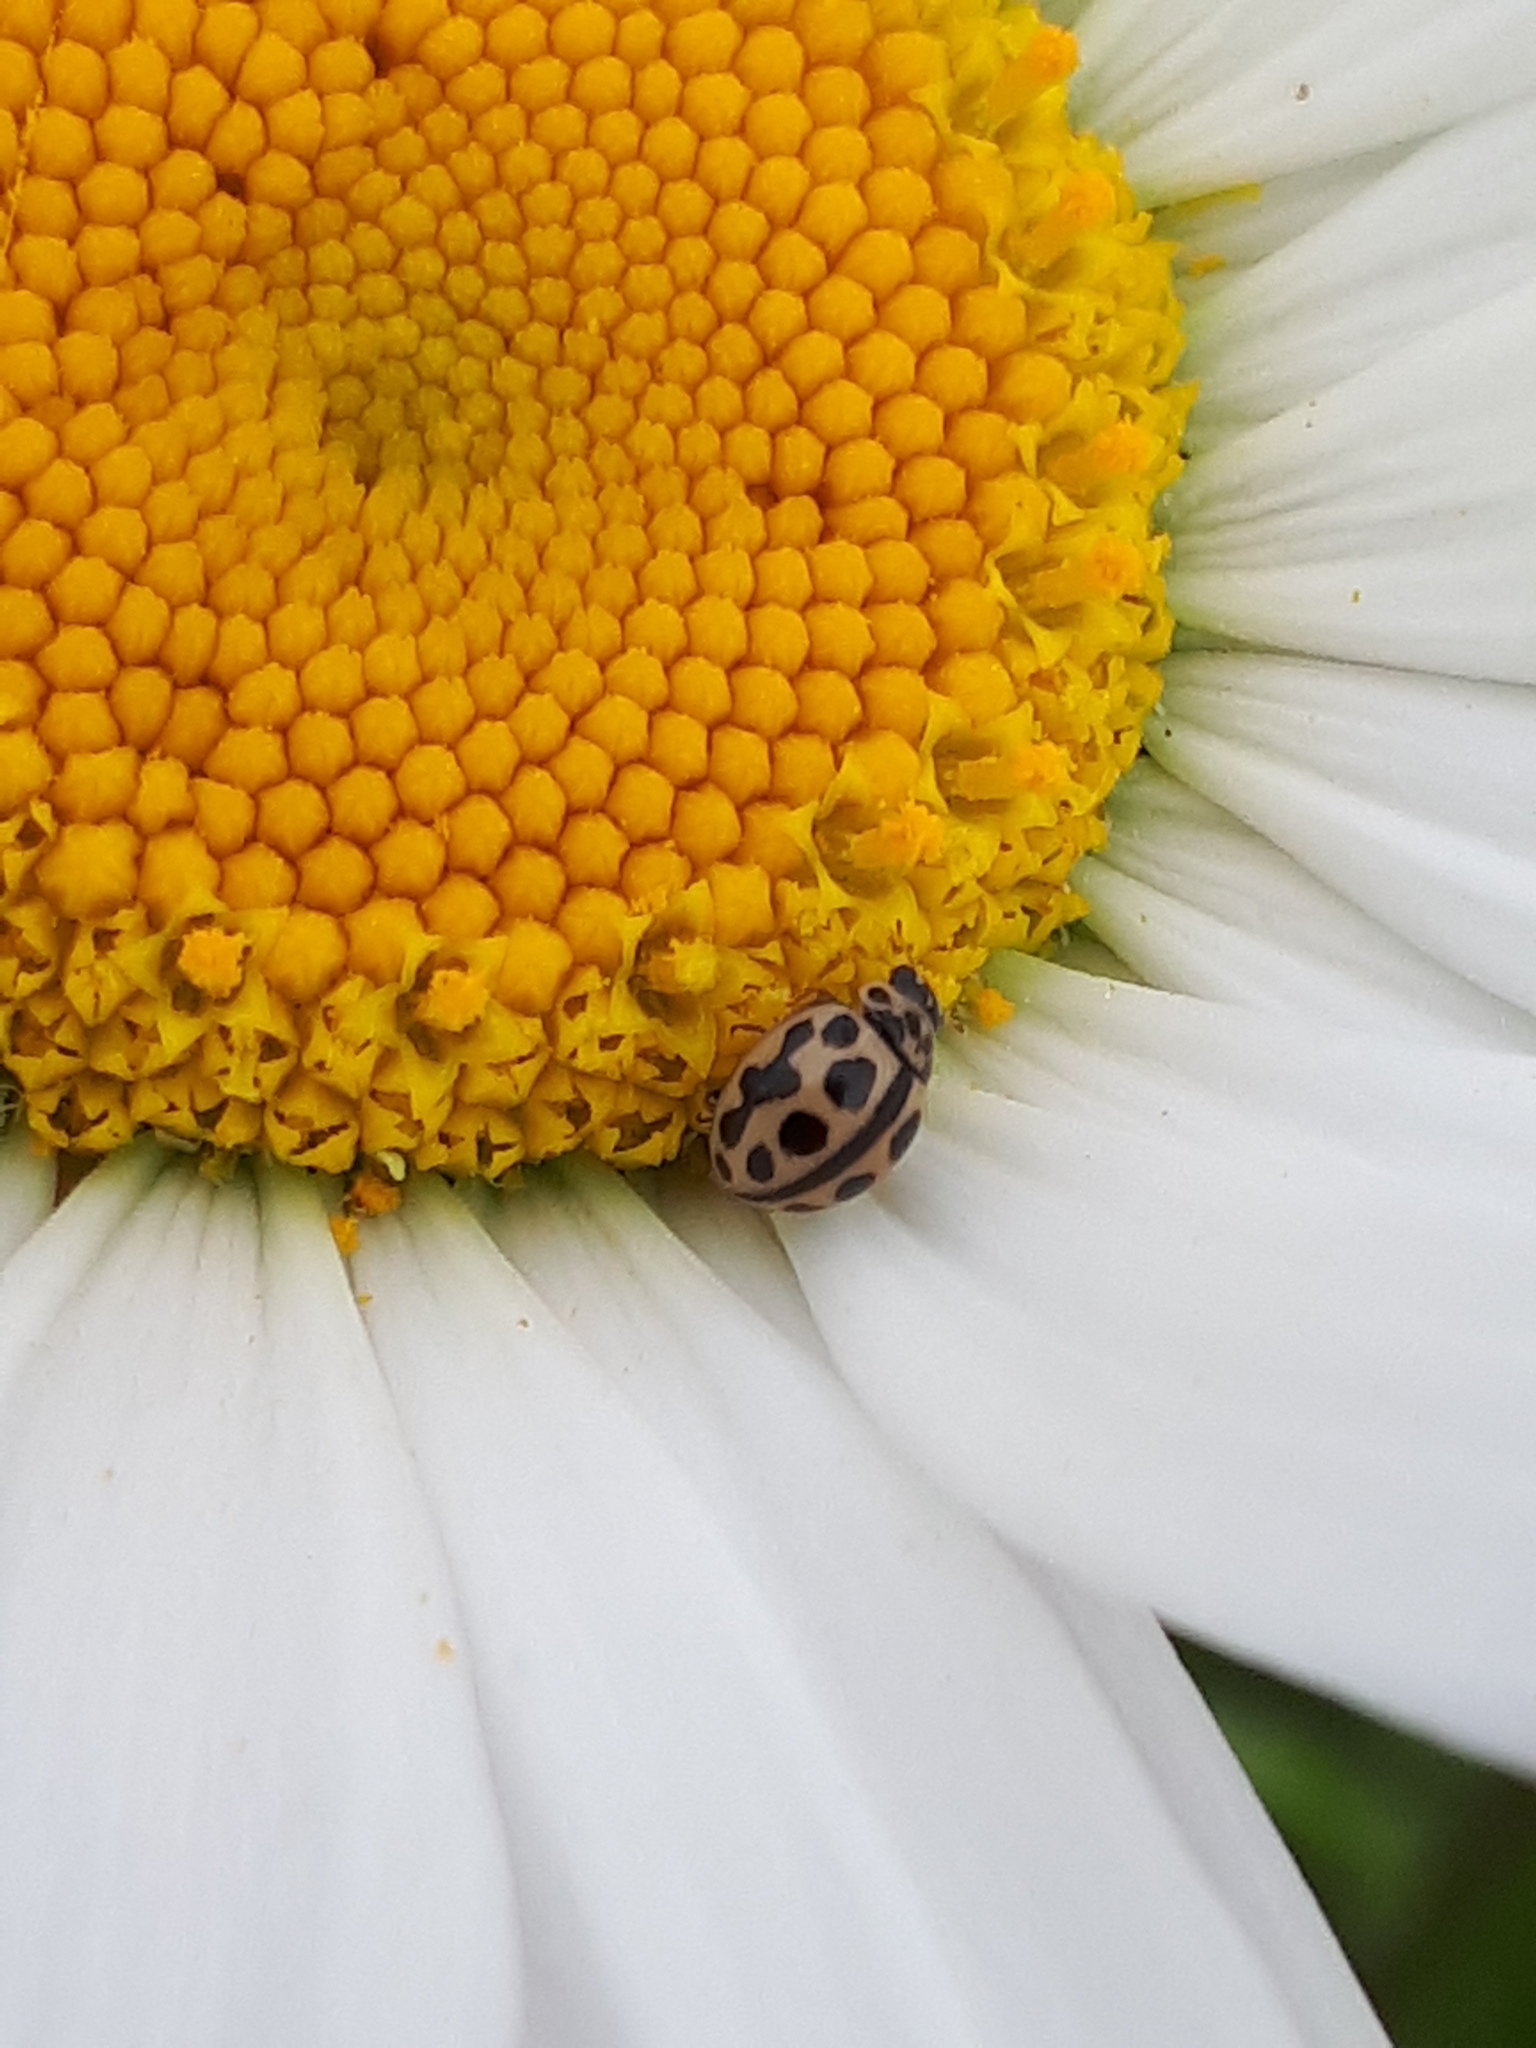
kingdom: Animalia
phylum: Arthropoda
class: Insecta
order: Coleoptera
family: Coccinellidae
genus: Tytthaspis
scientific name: Tytthaspis sedecimpunctata
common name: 16-spot ladybird
